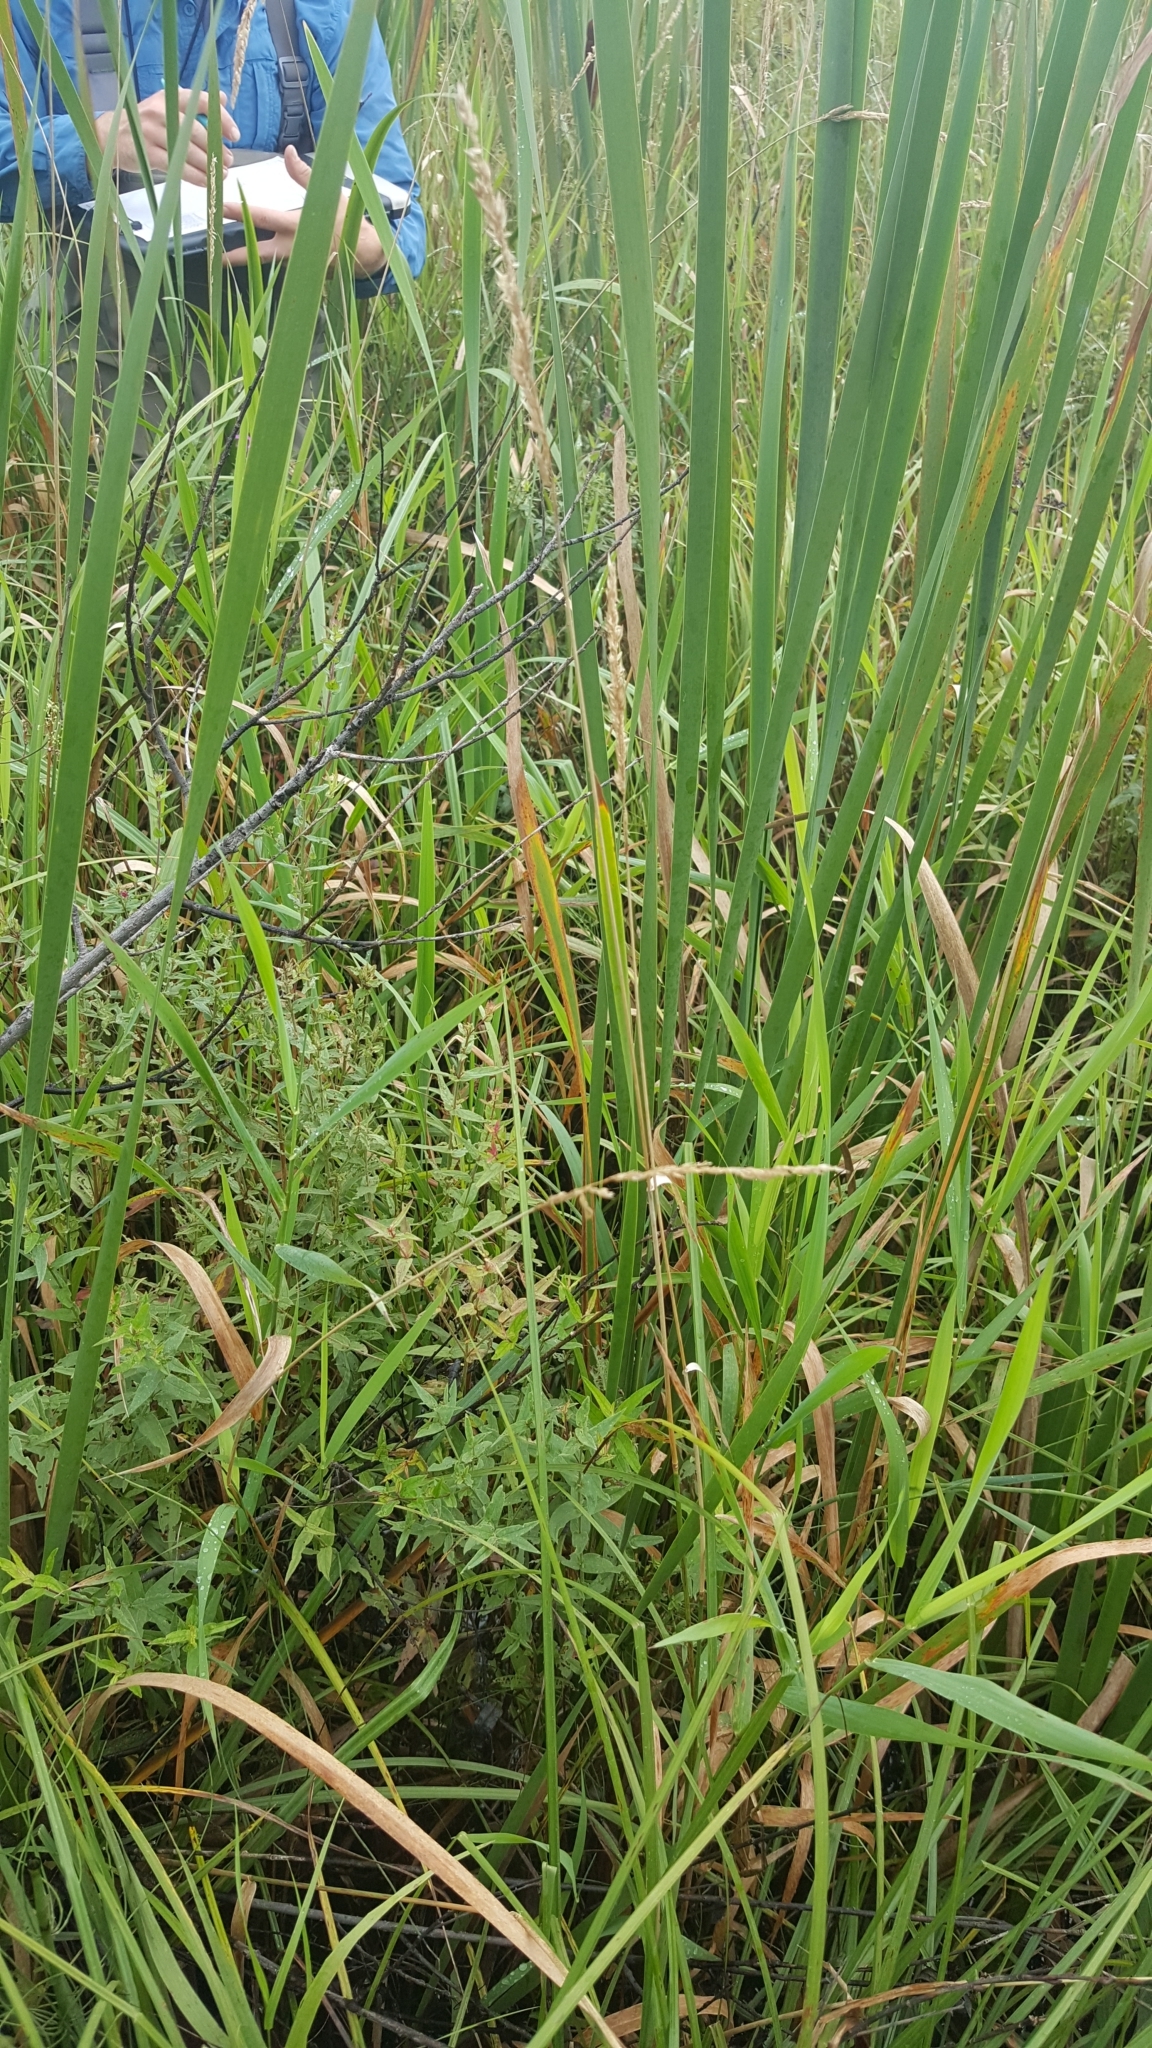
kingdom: Plantae
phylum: Tracheophyta
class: Liliopsida
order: Poales
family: Poaceae
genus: Phalaris
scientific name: Phalaris arundinacea
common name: Reed canary-grass
